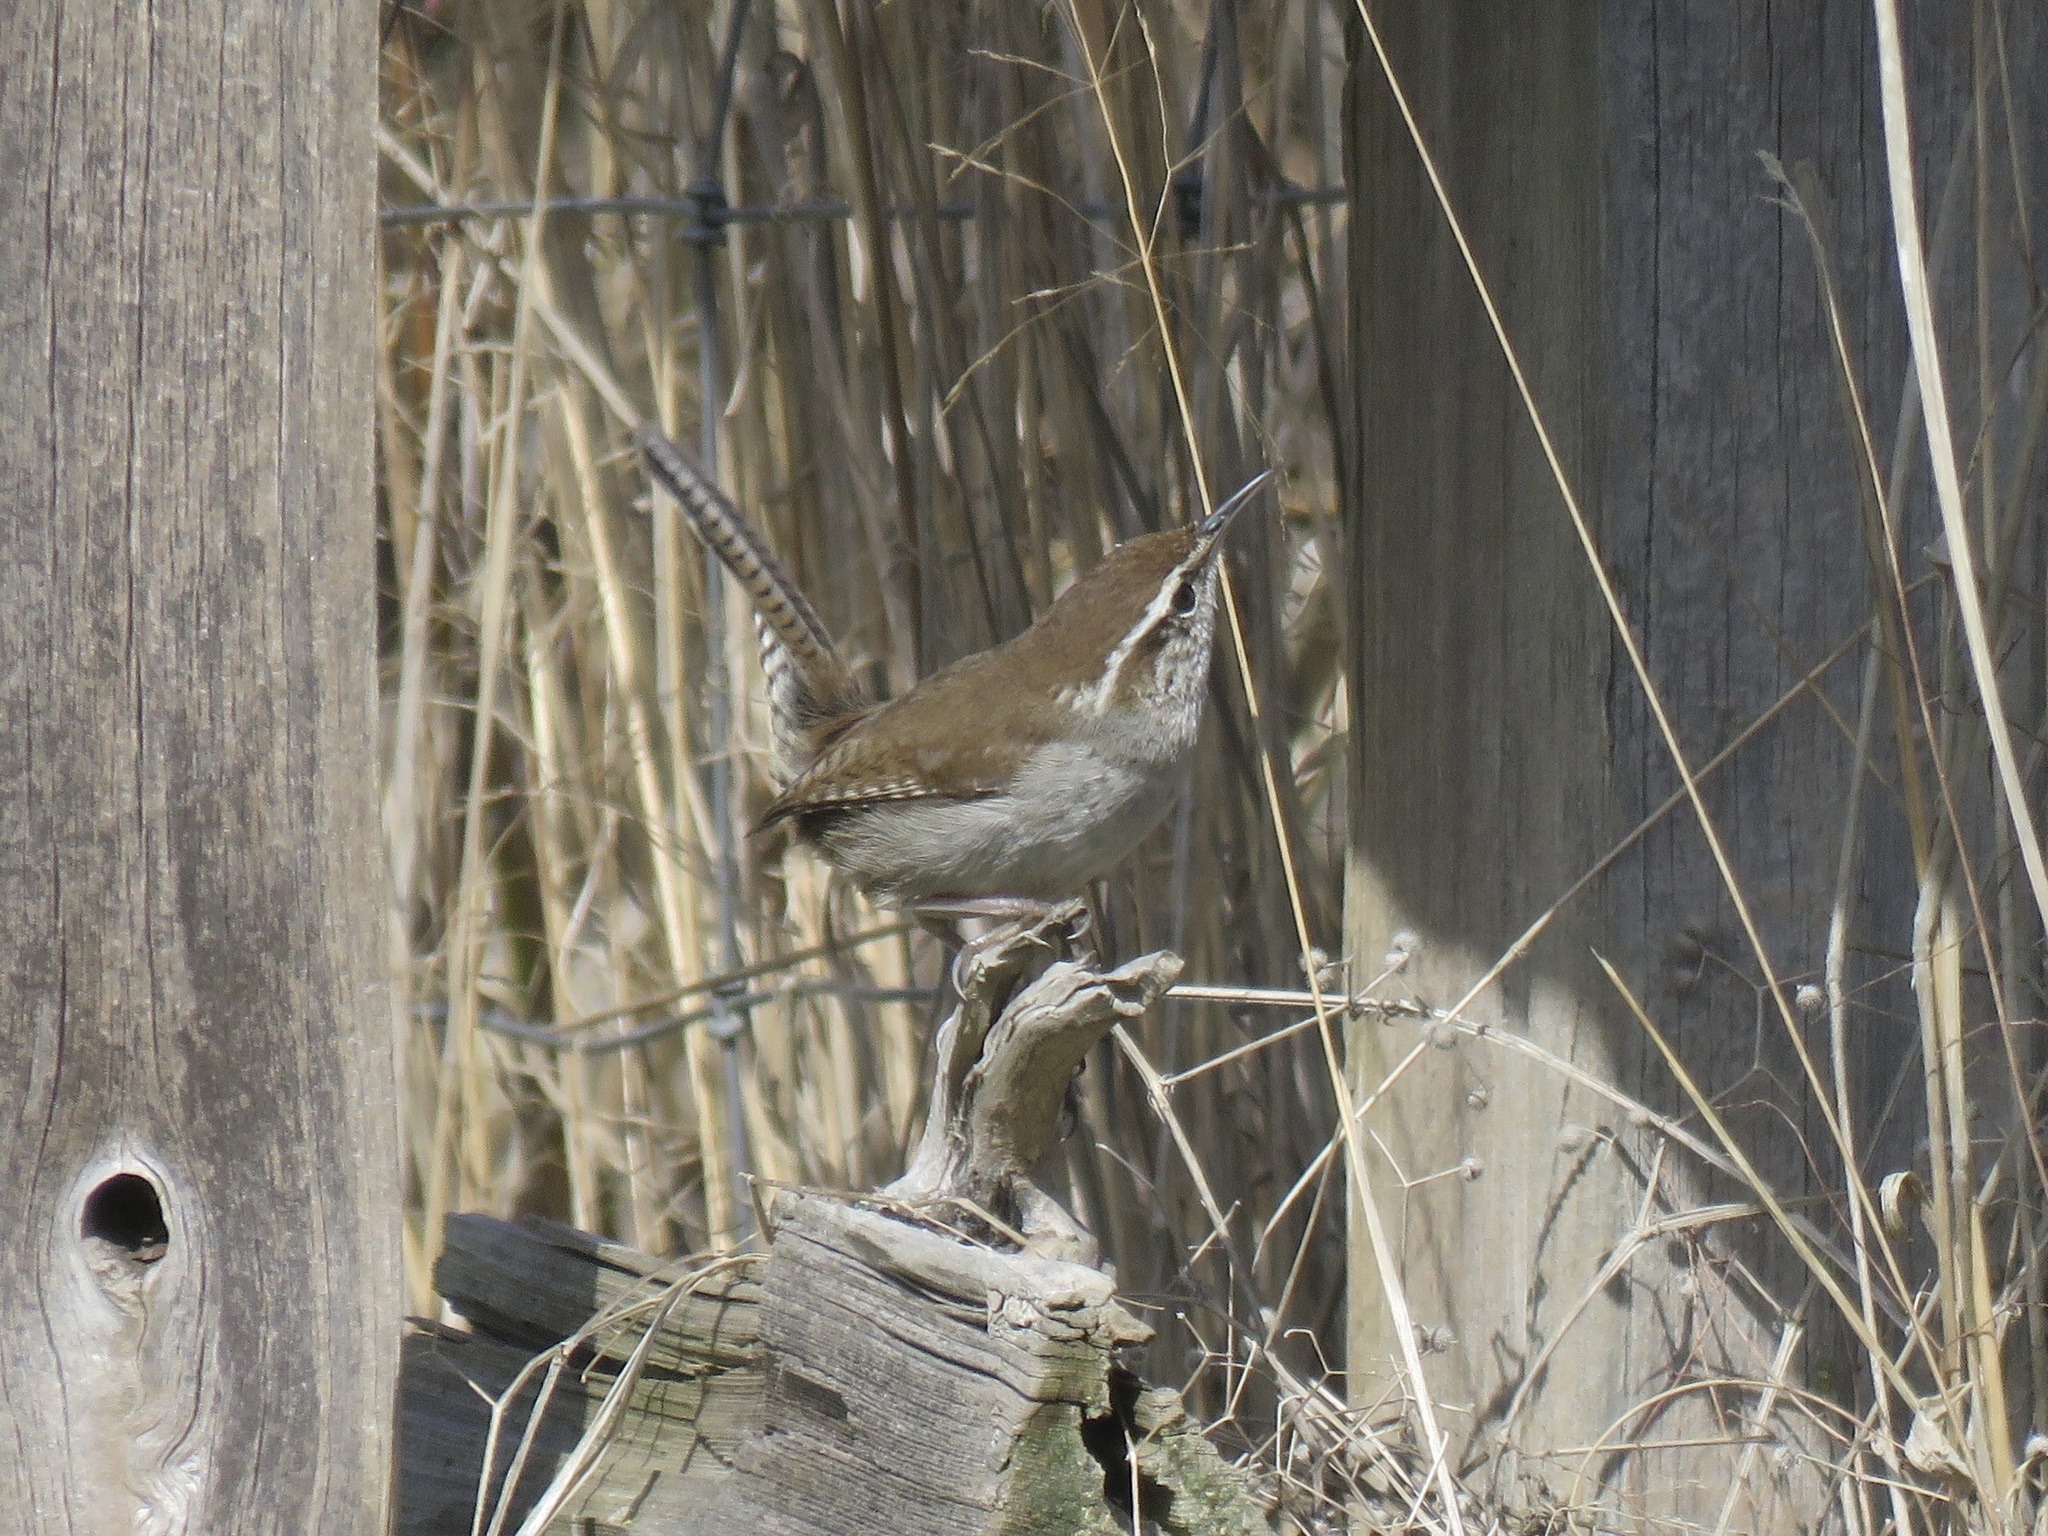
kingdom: Animalia
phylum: Chordata
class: Aves
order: Passeriformes
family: Troglodytidae
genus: Thryomanes
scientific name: Thryomanes bewickii
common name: Bewick's wren
